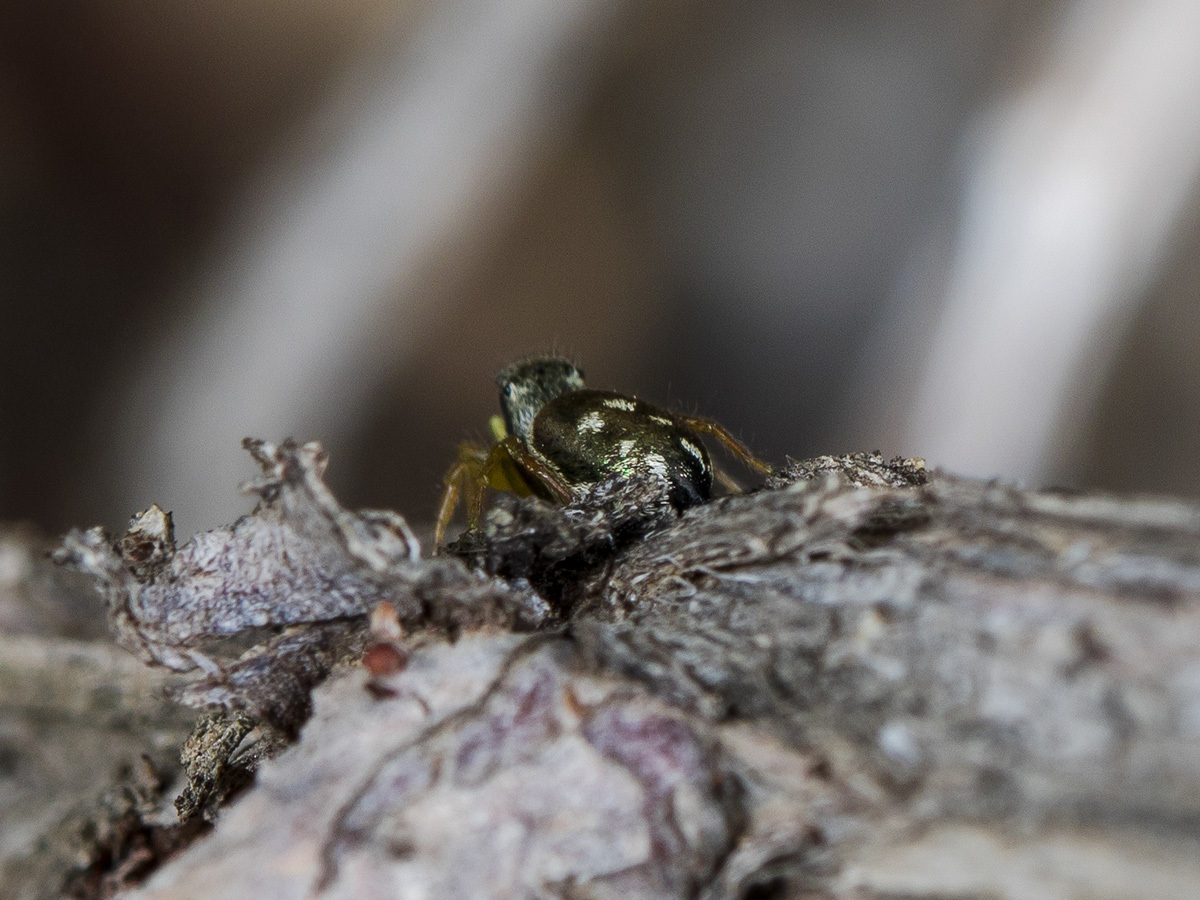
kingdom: Animalia
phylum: Arthropoda
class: Arachnida
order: Araneae
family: Salticidae
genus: Heliophanus
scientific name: Heliophanus curvidens
